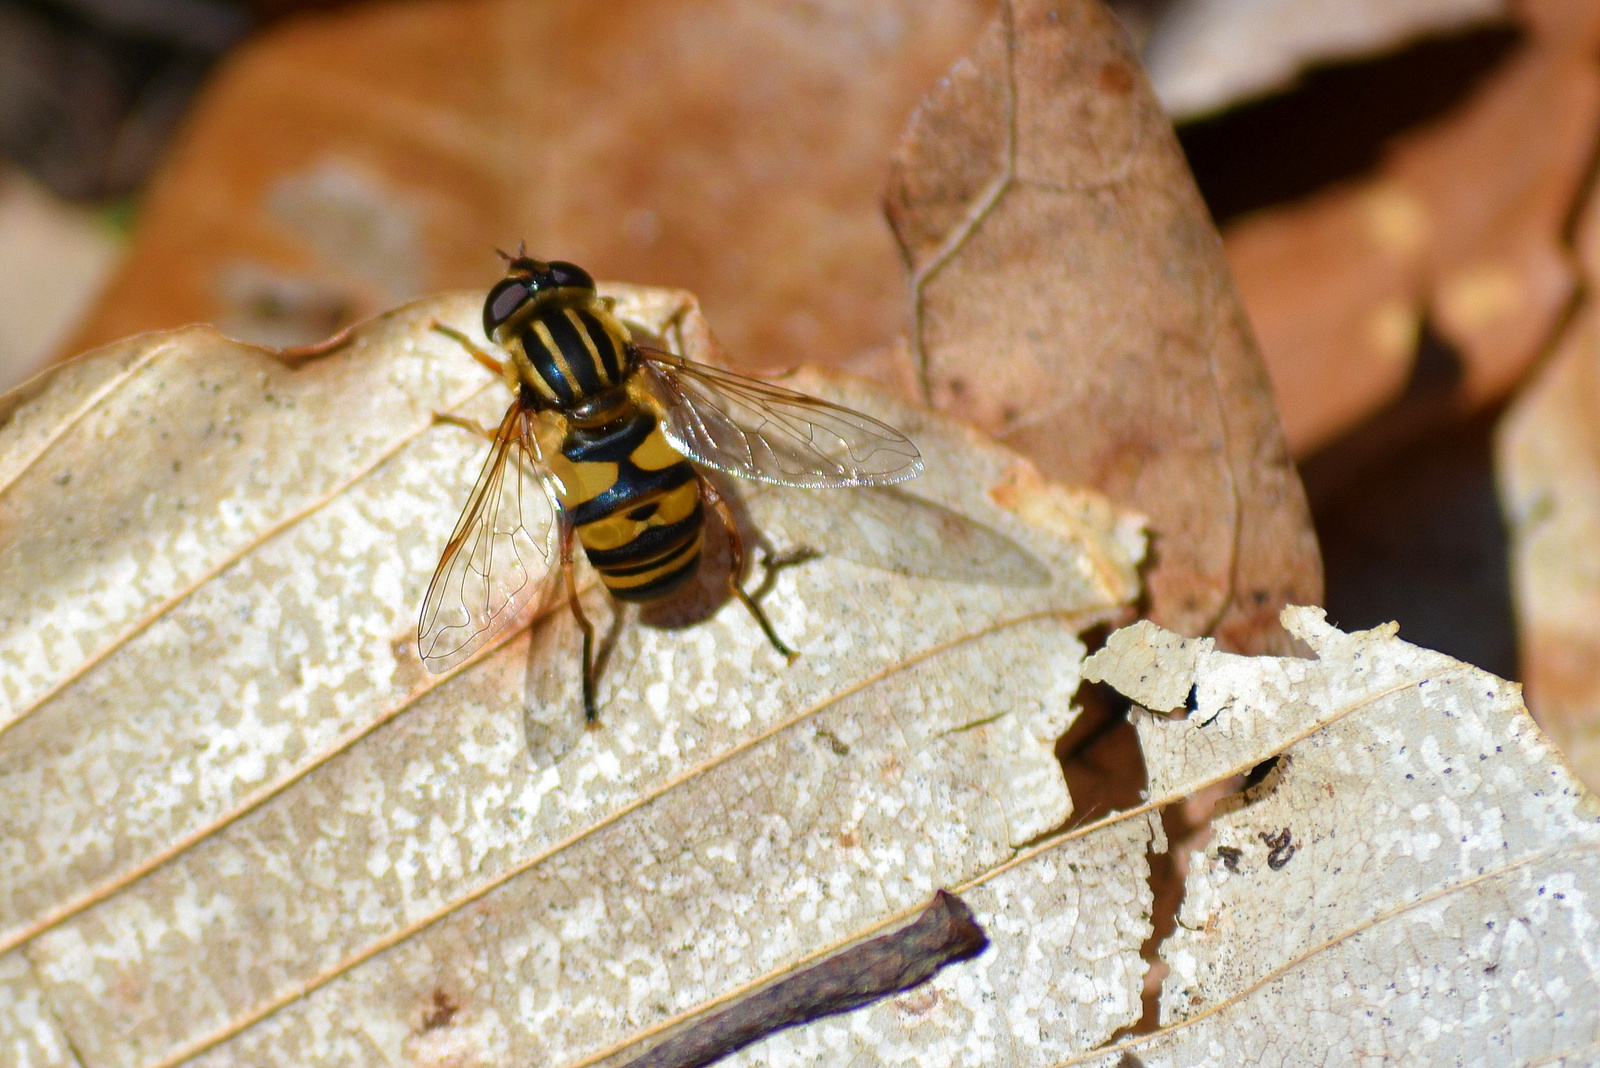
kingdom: Animalia
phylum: Arthropoda
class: Insecta
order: Diptera
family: Syrphidae
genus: Helophilus
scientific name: Helophilus fasciatus
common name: Narrow-headed marsh fly
